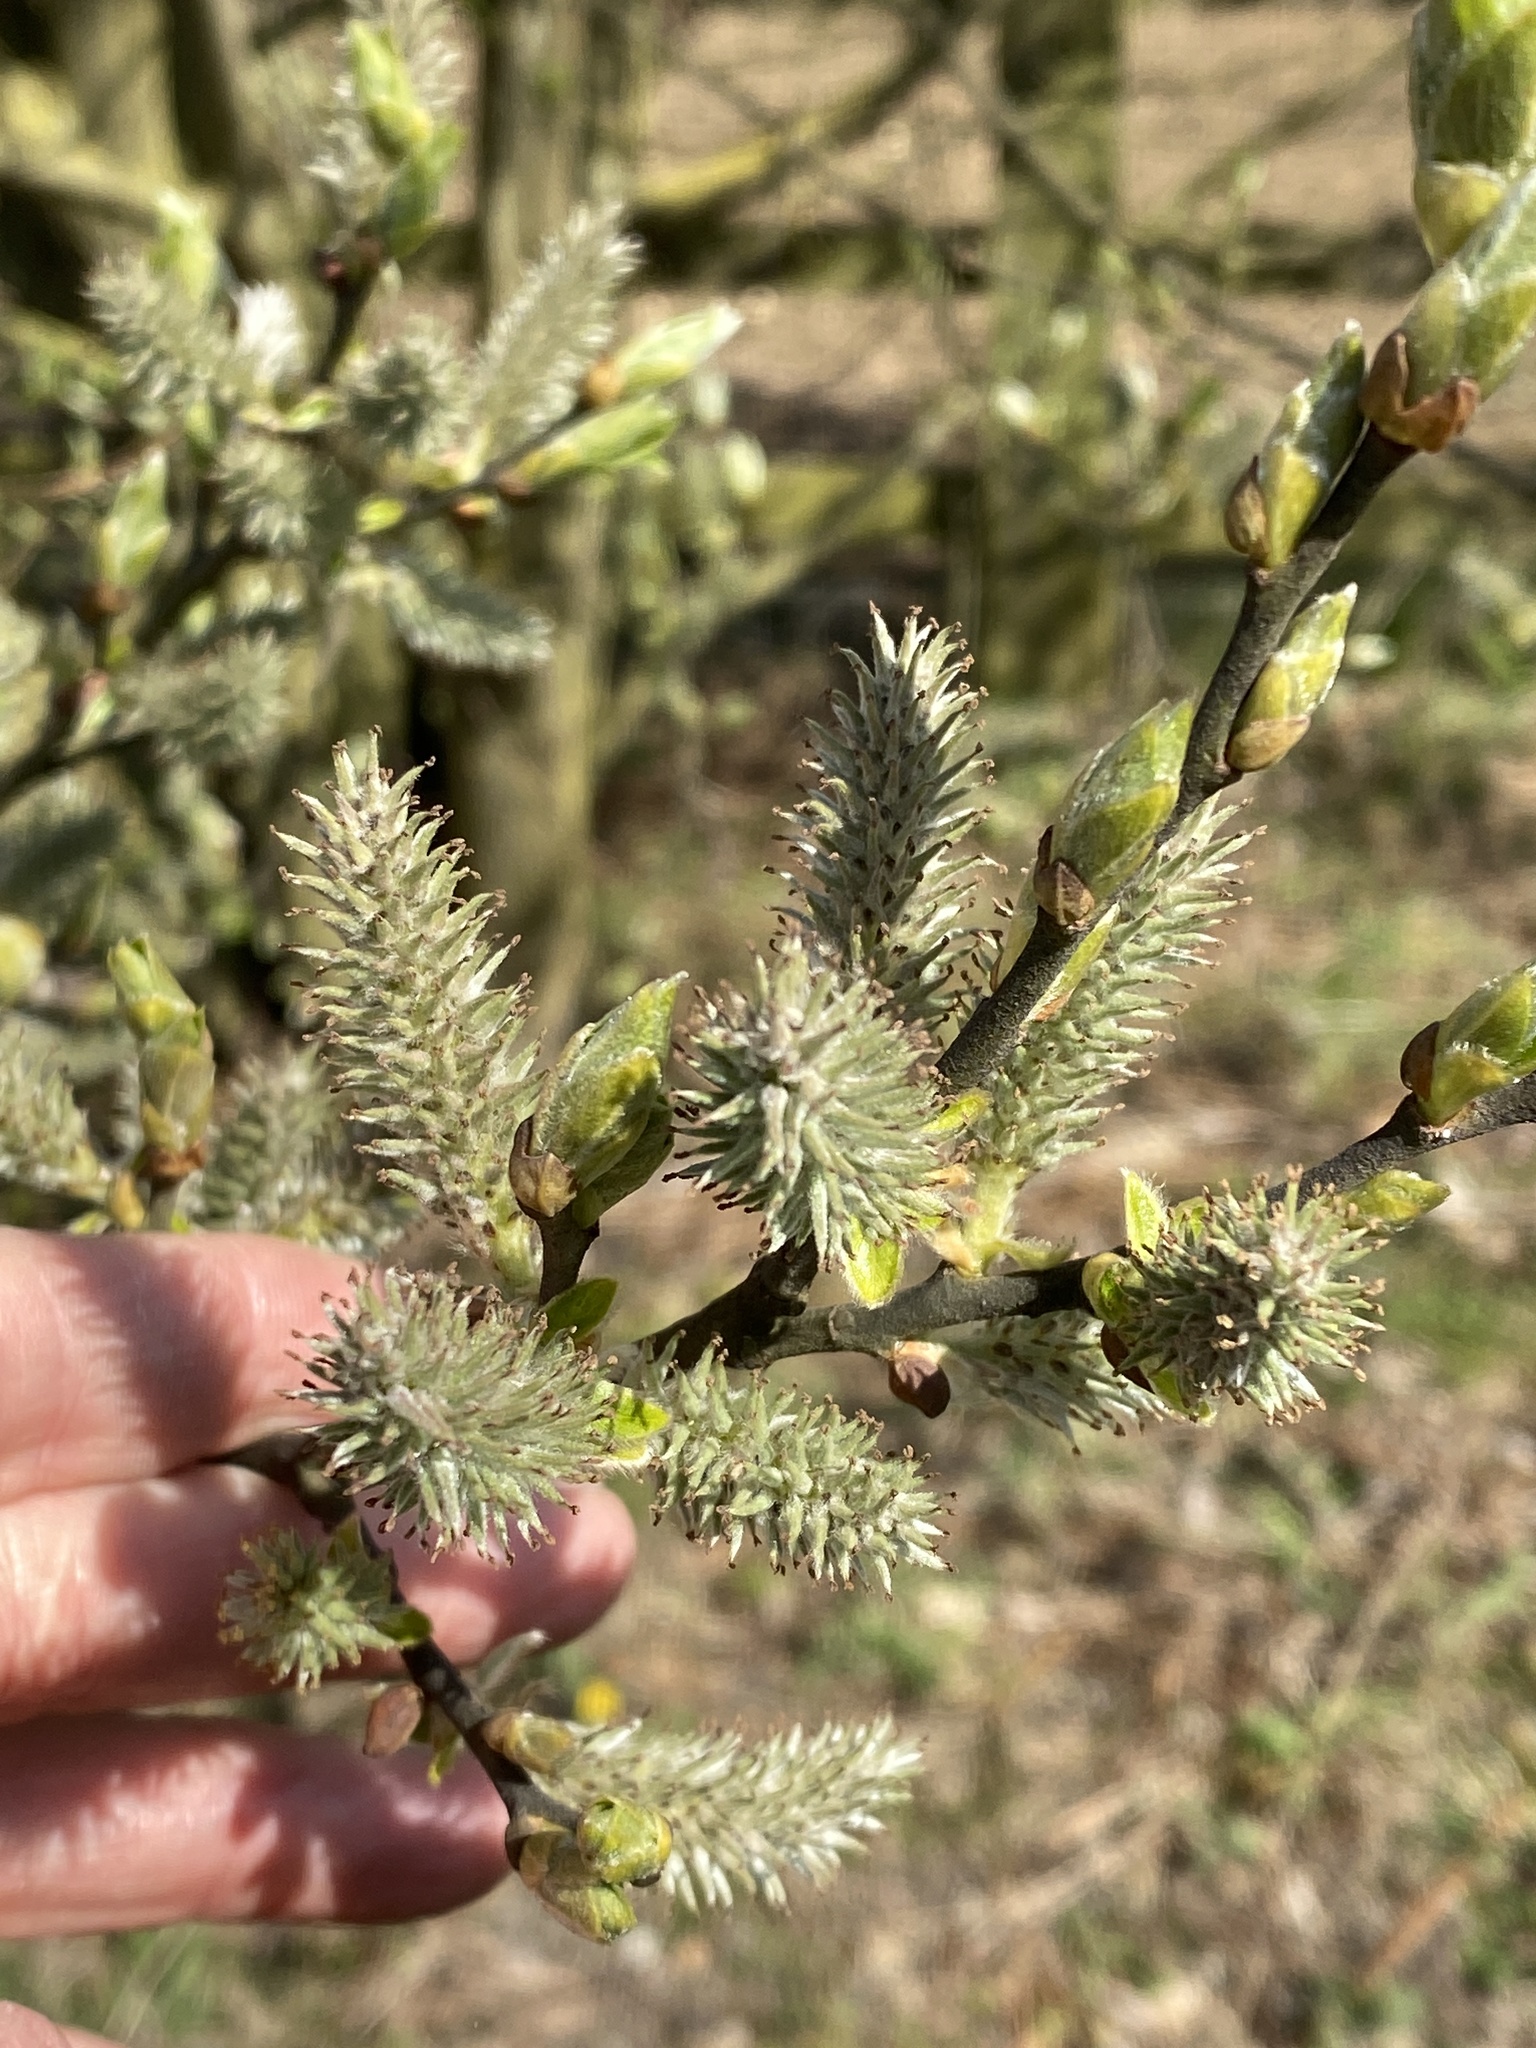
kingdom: Plantae
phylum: Tracheophyta
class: Magnoliopsida
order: Malpighiales
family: Salicaceae
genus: Salix
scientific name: Salix cinerea
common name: Common sallow
